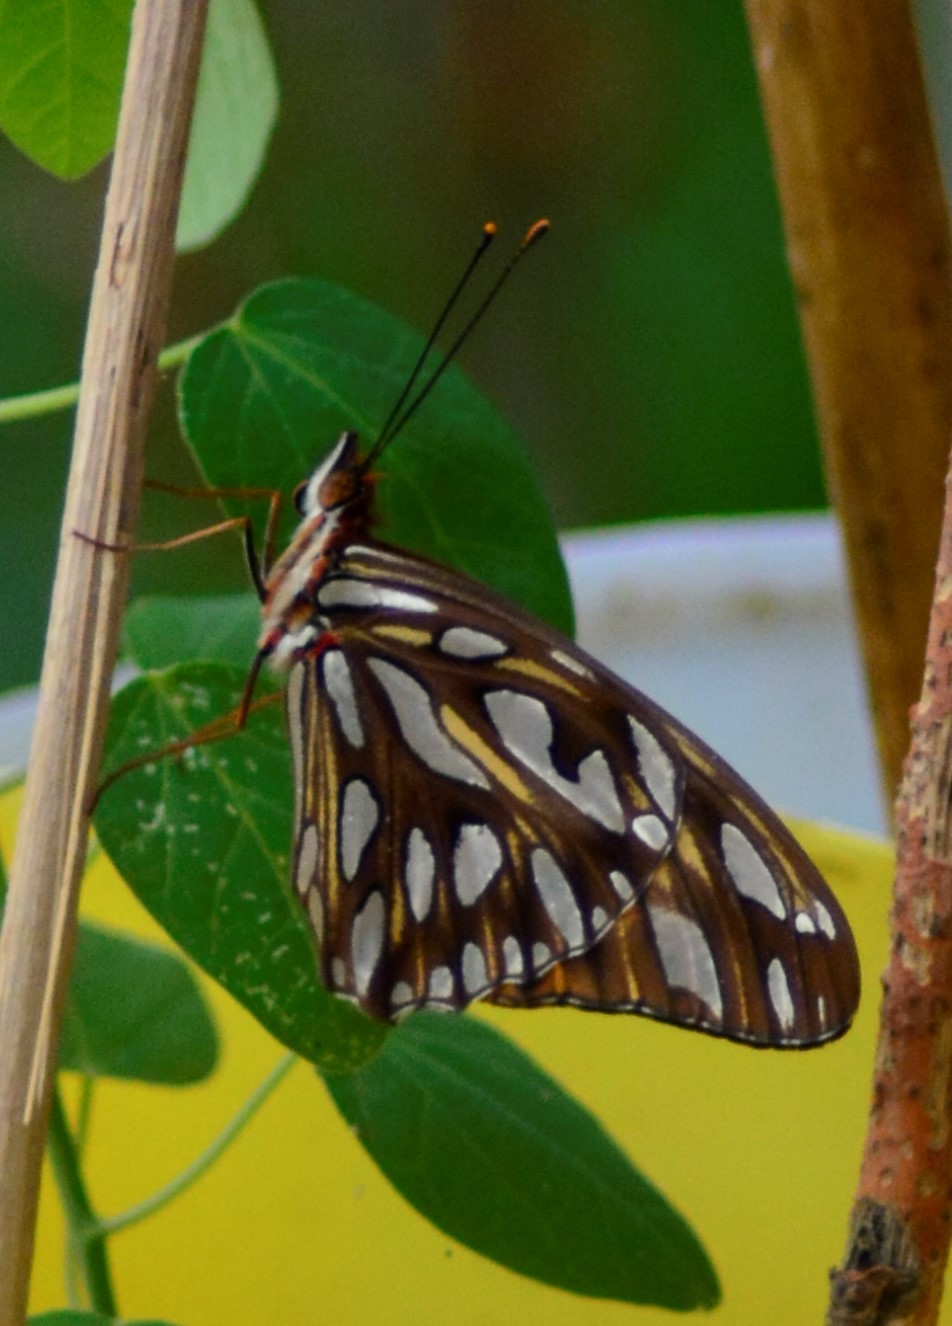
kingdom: Animalia
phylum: Arthropoda
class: Insecta
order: Lepidoptera
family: Nymphalidae
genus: Dione
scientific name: Dione vanillae
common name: Gulf fritillary
